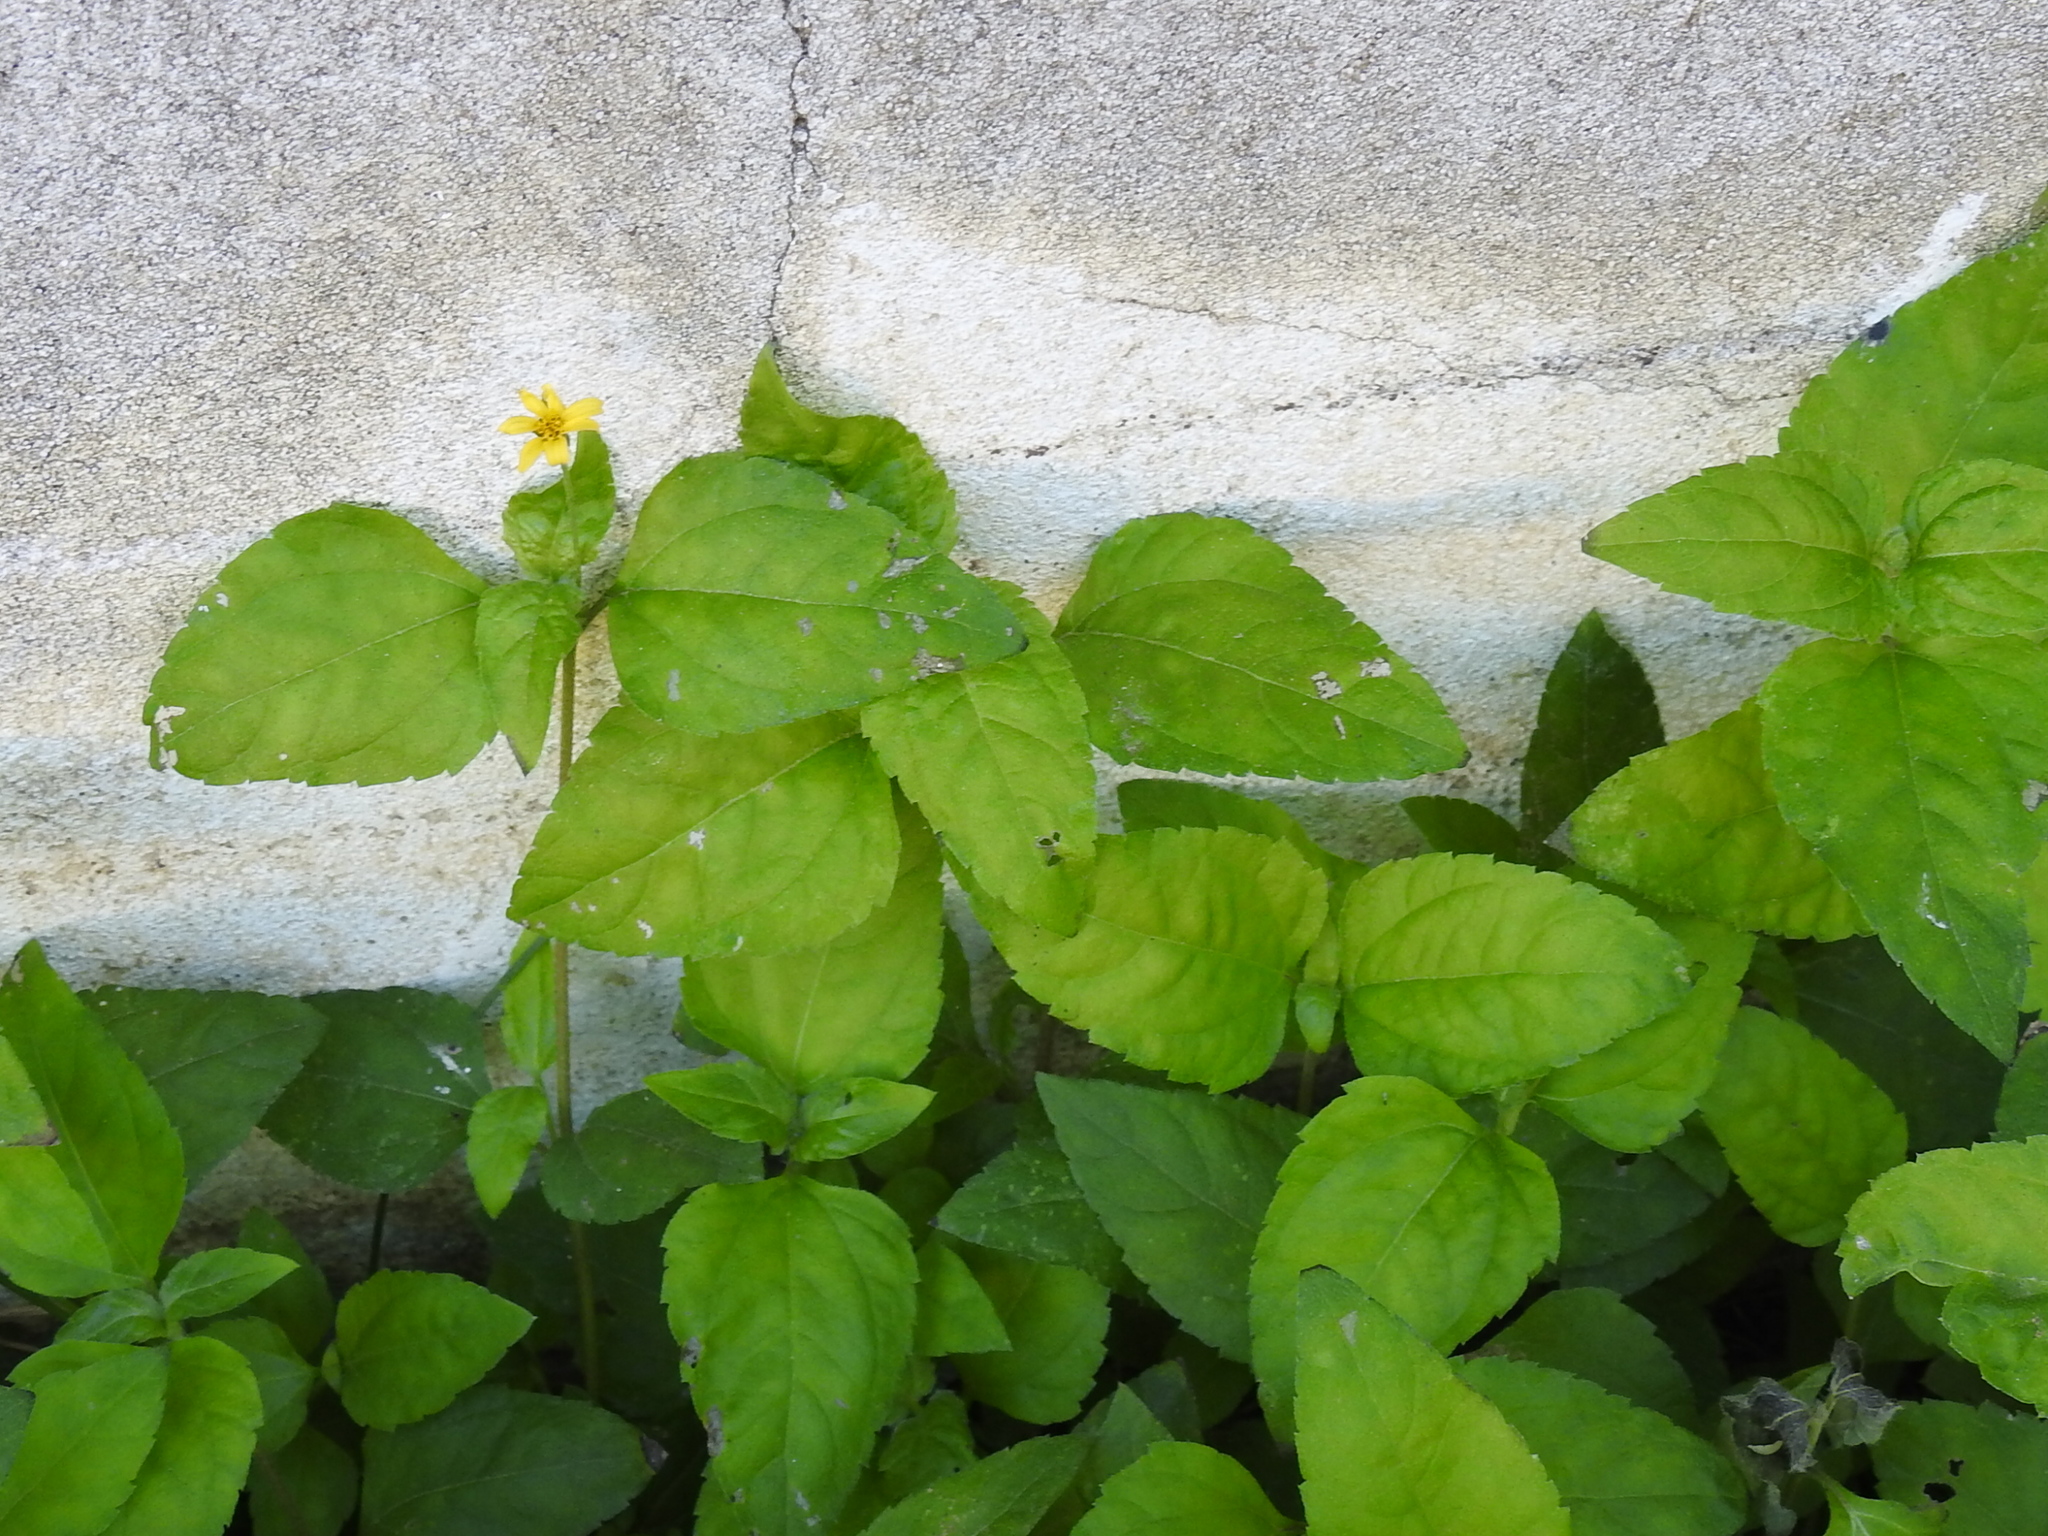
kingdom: Plantae
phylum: Tracheophyta
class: Magnoliopsida
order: Asterales
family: Asteraceae
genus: Calyptocarpus
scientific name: Calyptocarpus vialis
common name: Straggler daisy
